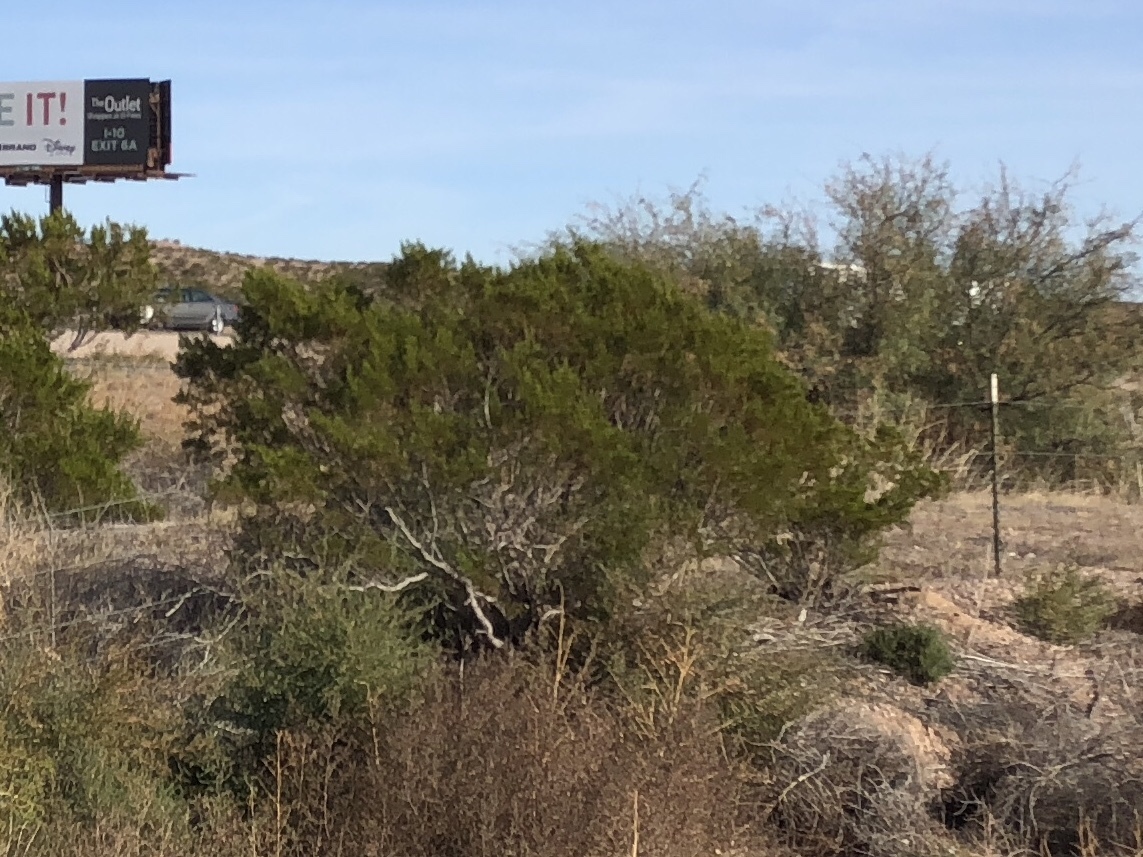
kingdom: Plantae
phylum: Tracheophyta
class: Magnoliopsida
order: Zygophyllales
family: Zygophyllaceae
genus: Larrea
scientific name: Larrea tridentata
